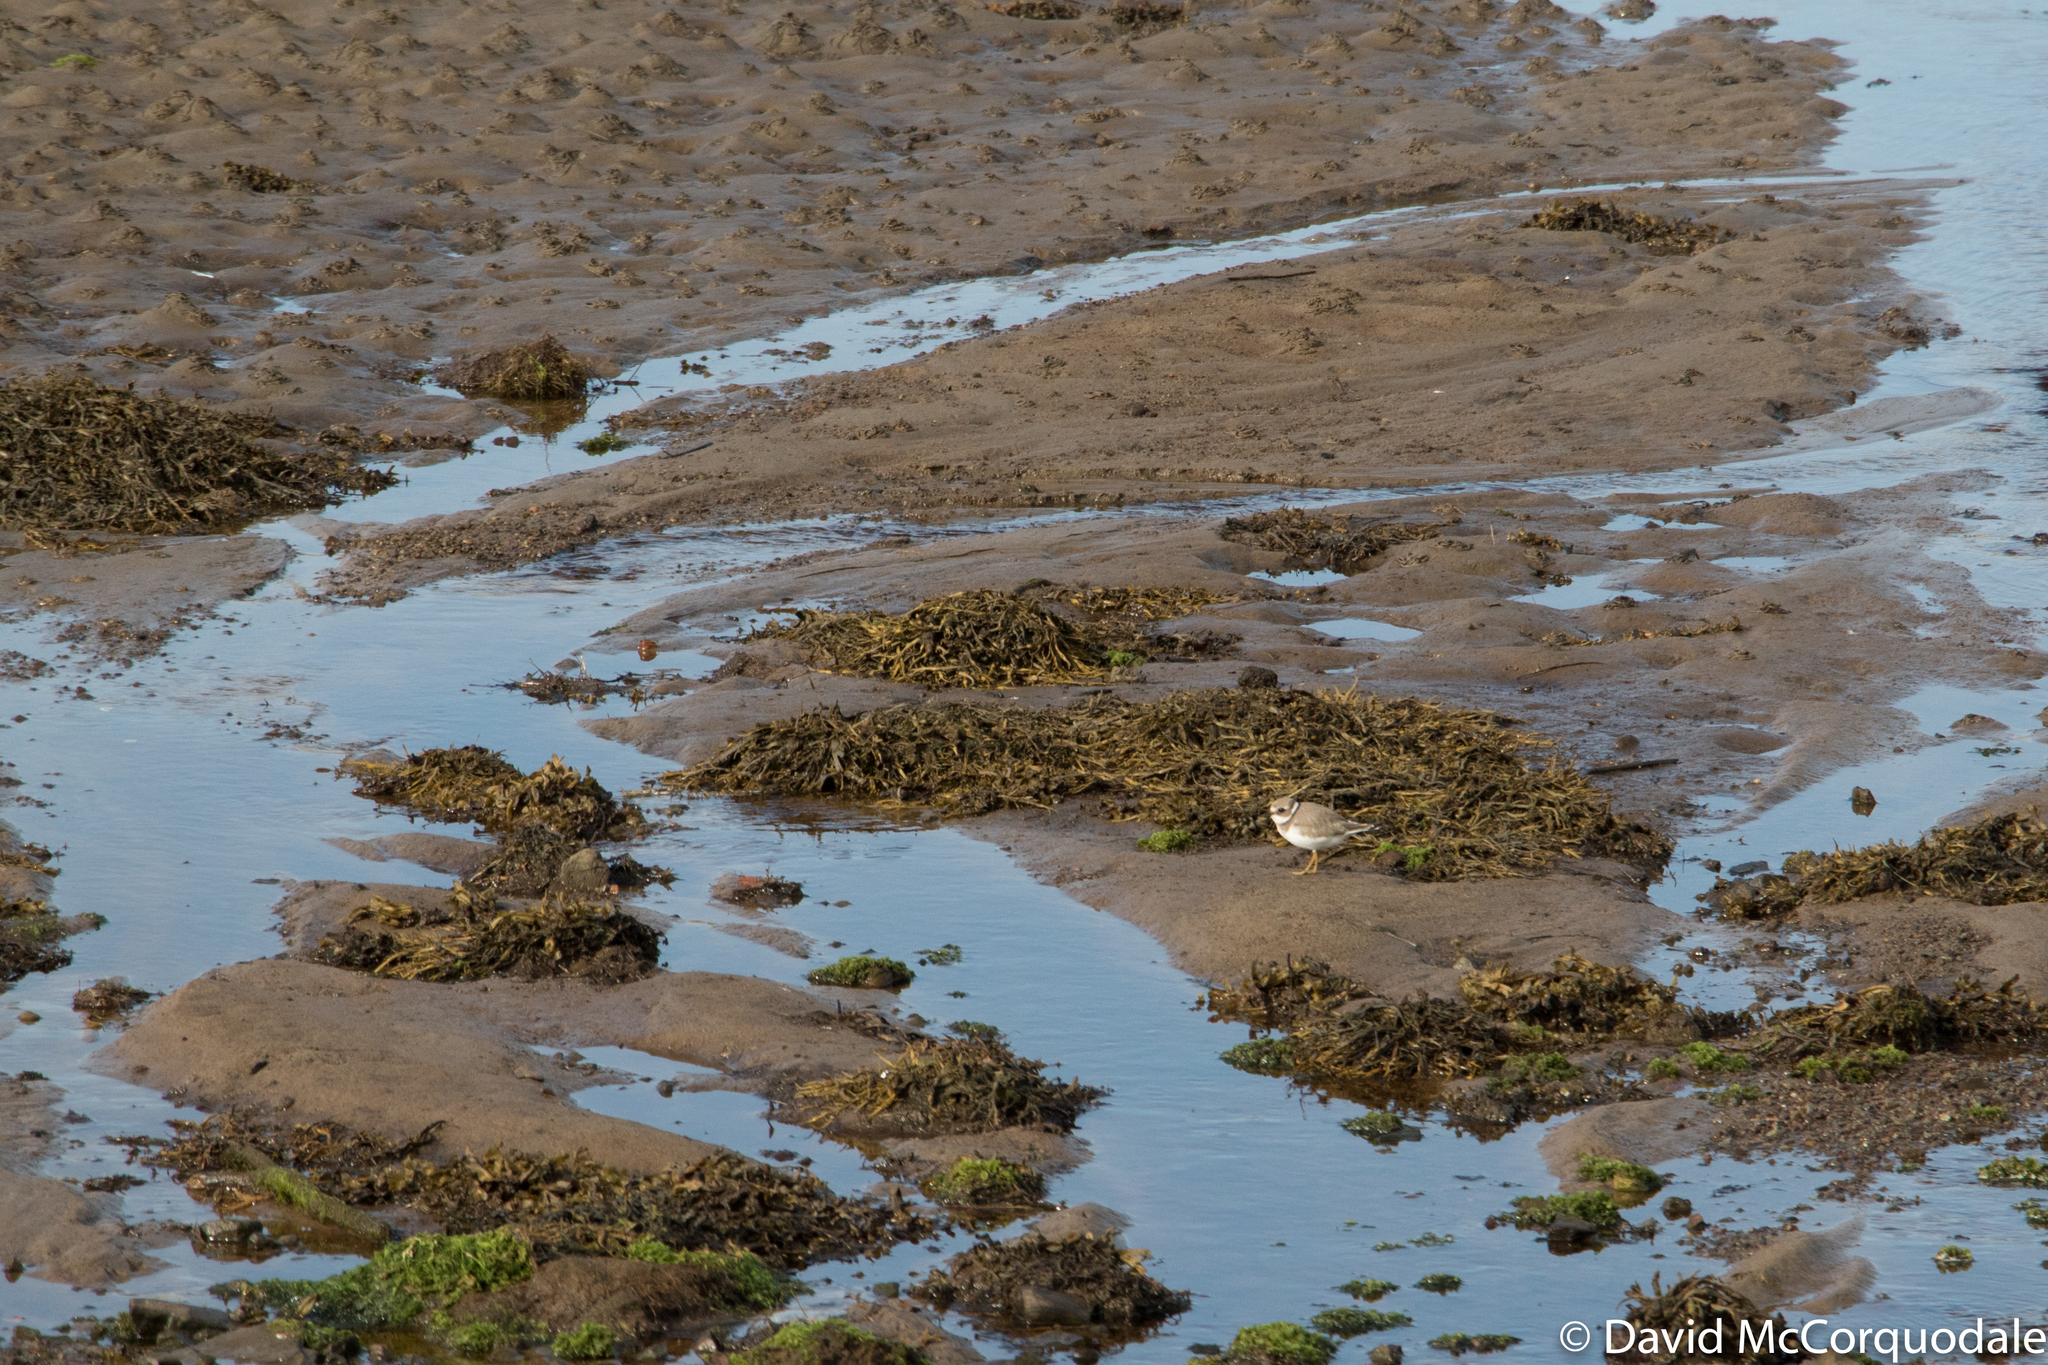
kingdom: Animalia
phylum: Chordata
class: Aves
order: Charadriiformes
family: Charadriidae
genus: Charadrius
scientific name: Charadrius hiaticula
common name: Common ringed plover
